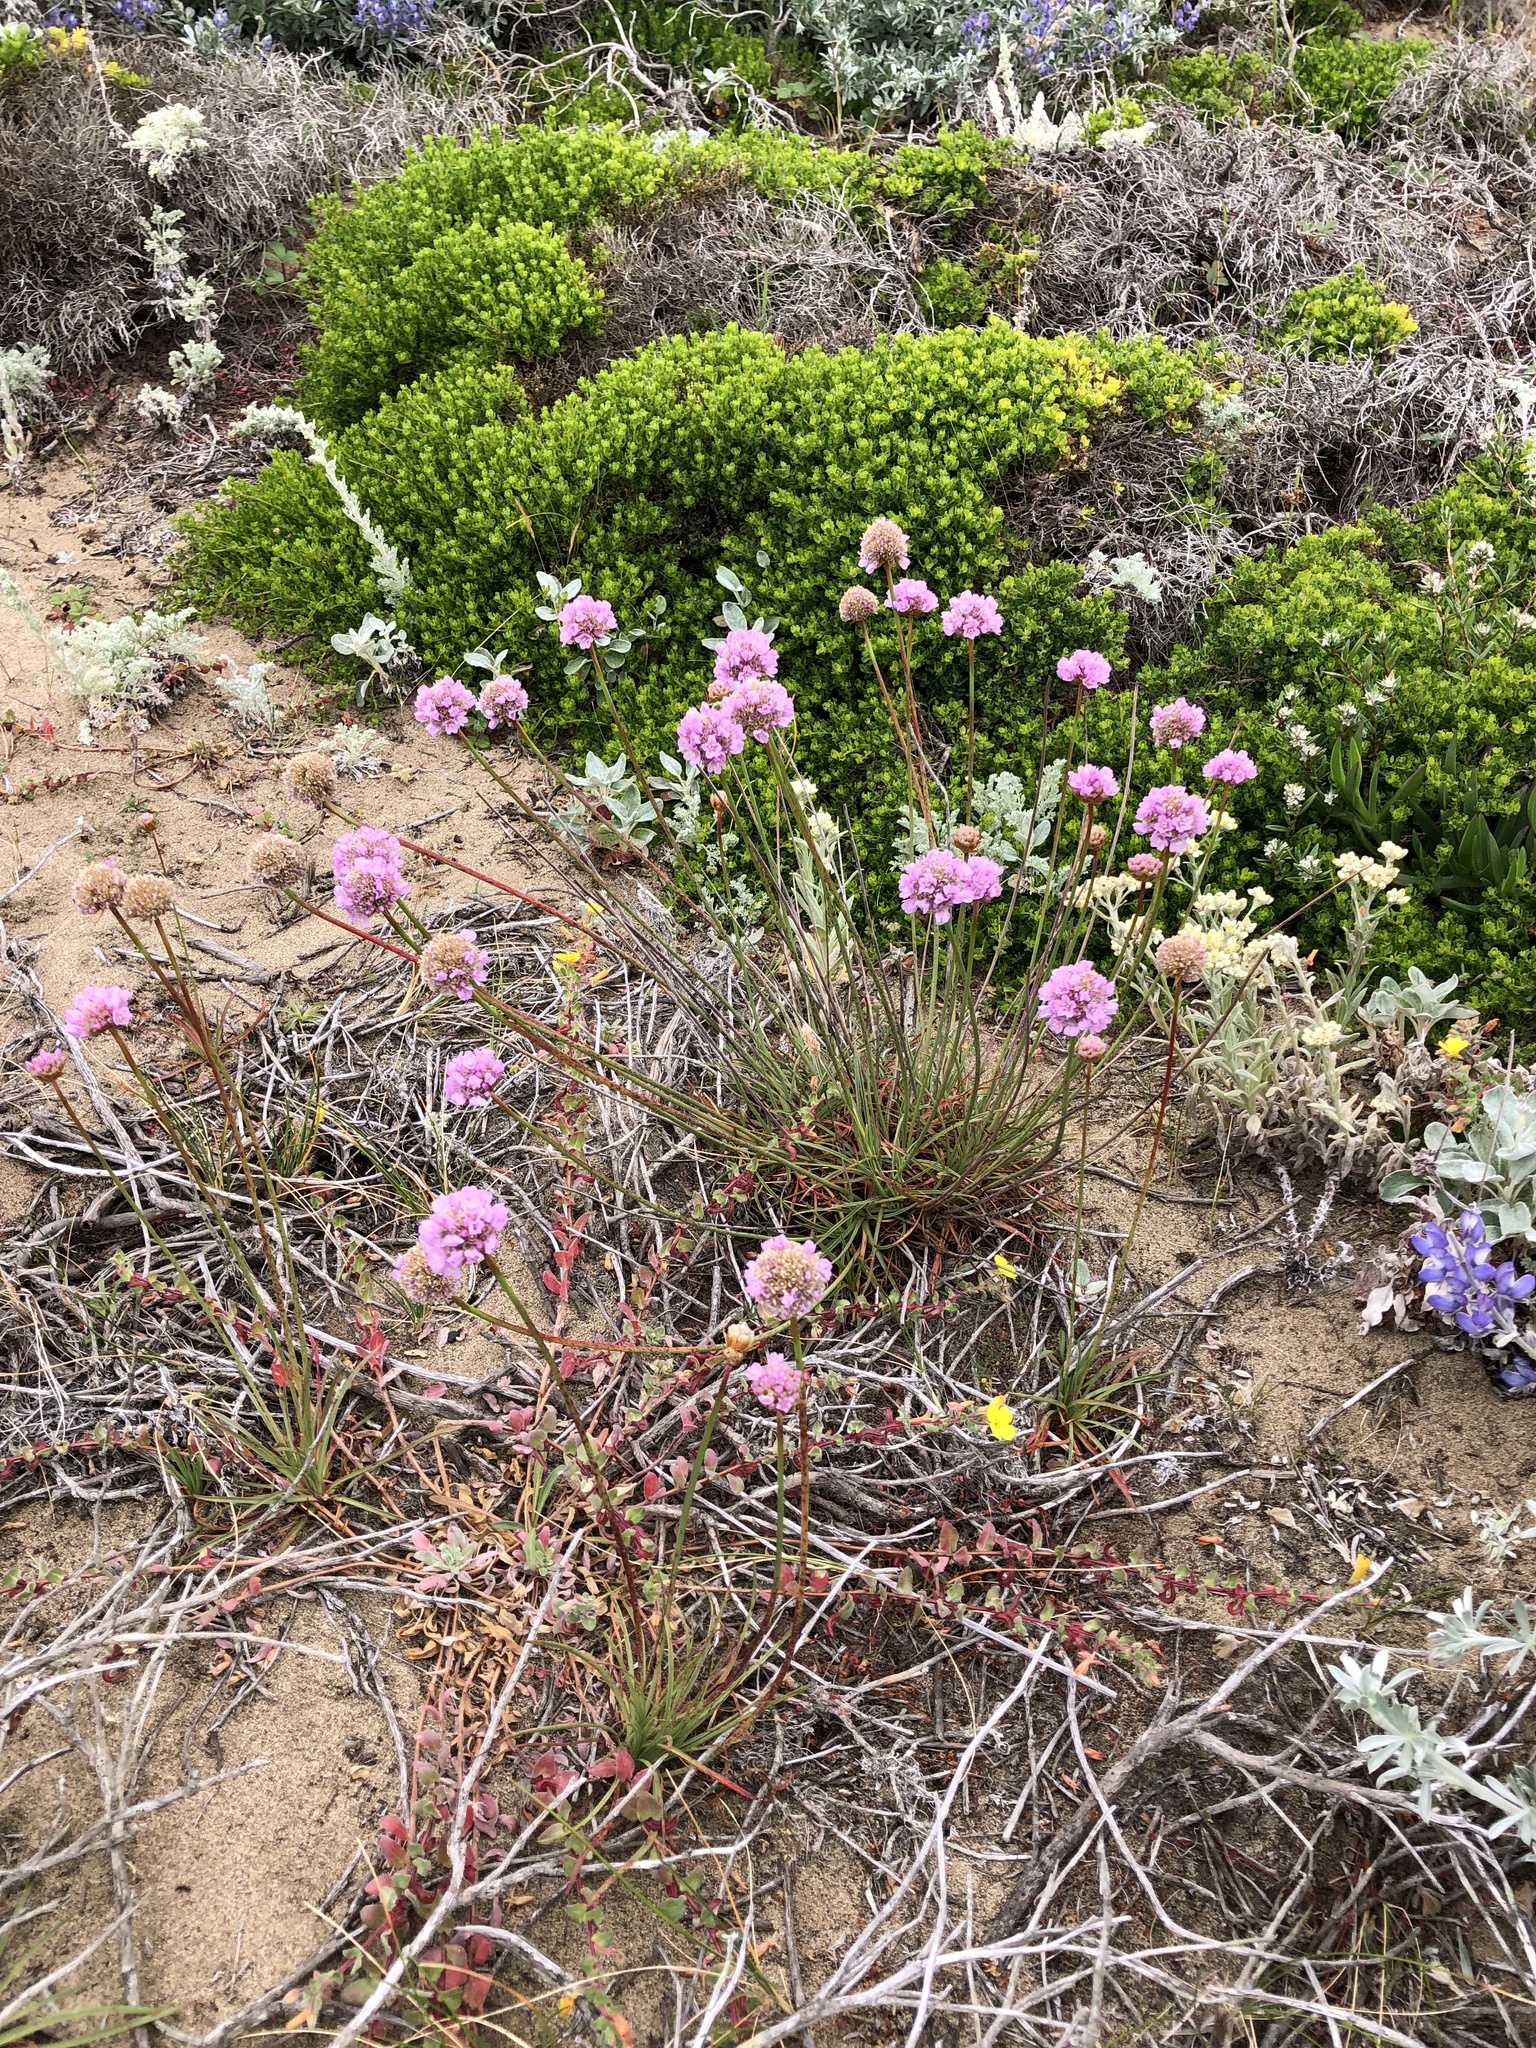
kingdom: Plantae
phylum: Tracheophyta
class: Magnoliopsida
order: Caryophyllales
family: Plumbaginaceae
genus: Armeria
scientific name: Armeria maritima
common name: Thrift
